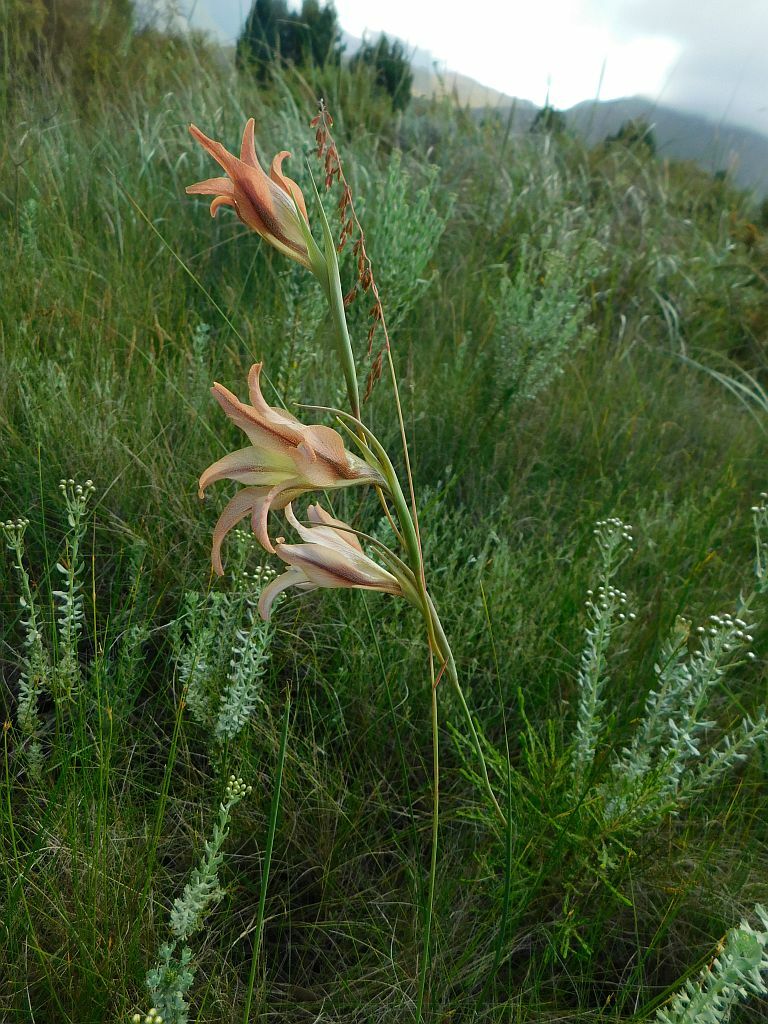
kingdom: Plantae
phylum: Tracheophyta
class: Liliopsida
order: Asparagales
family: Iridaceae
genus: Gladiolus
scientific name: Gladiolus liliaceus
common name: Large brown afrikaner
